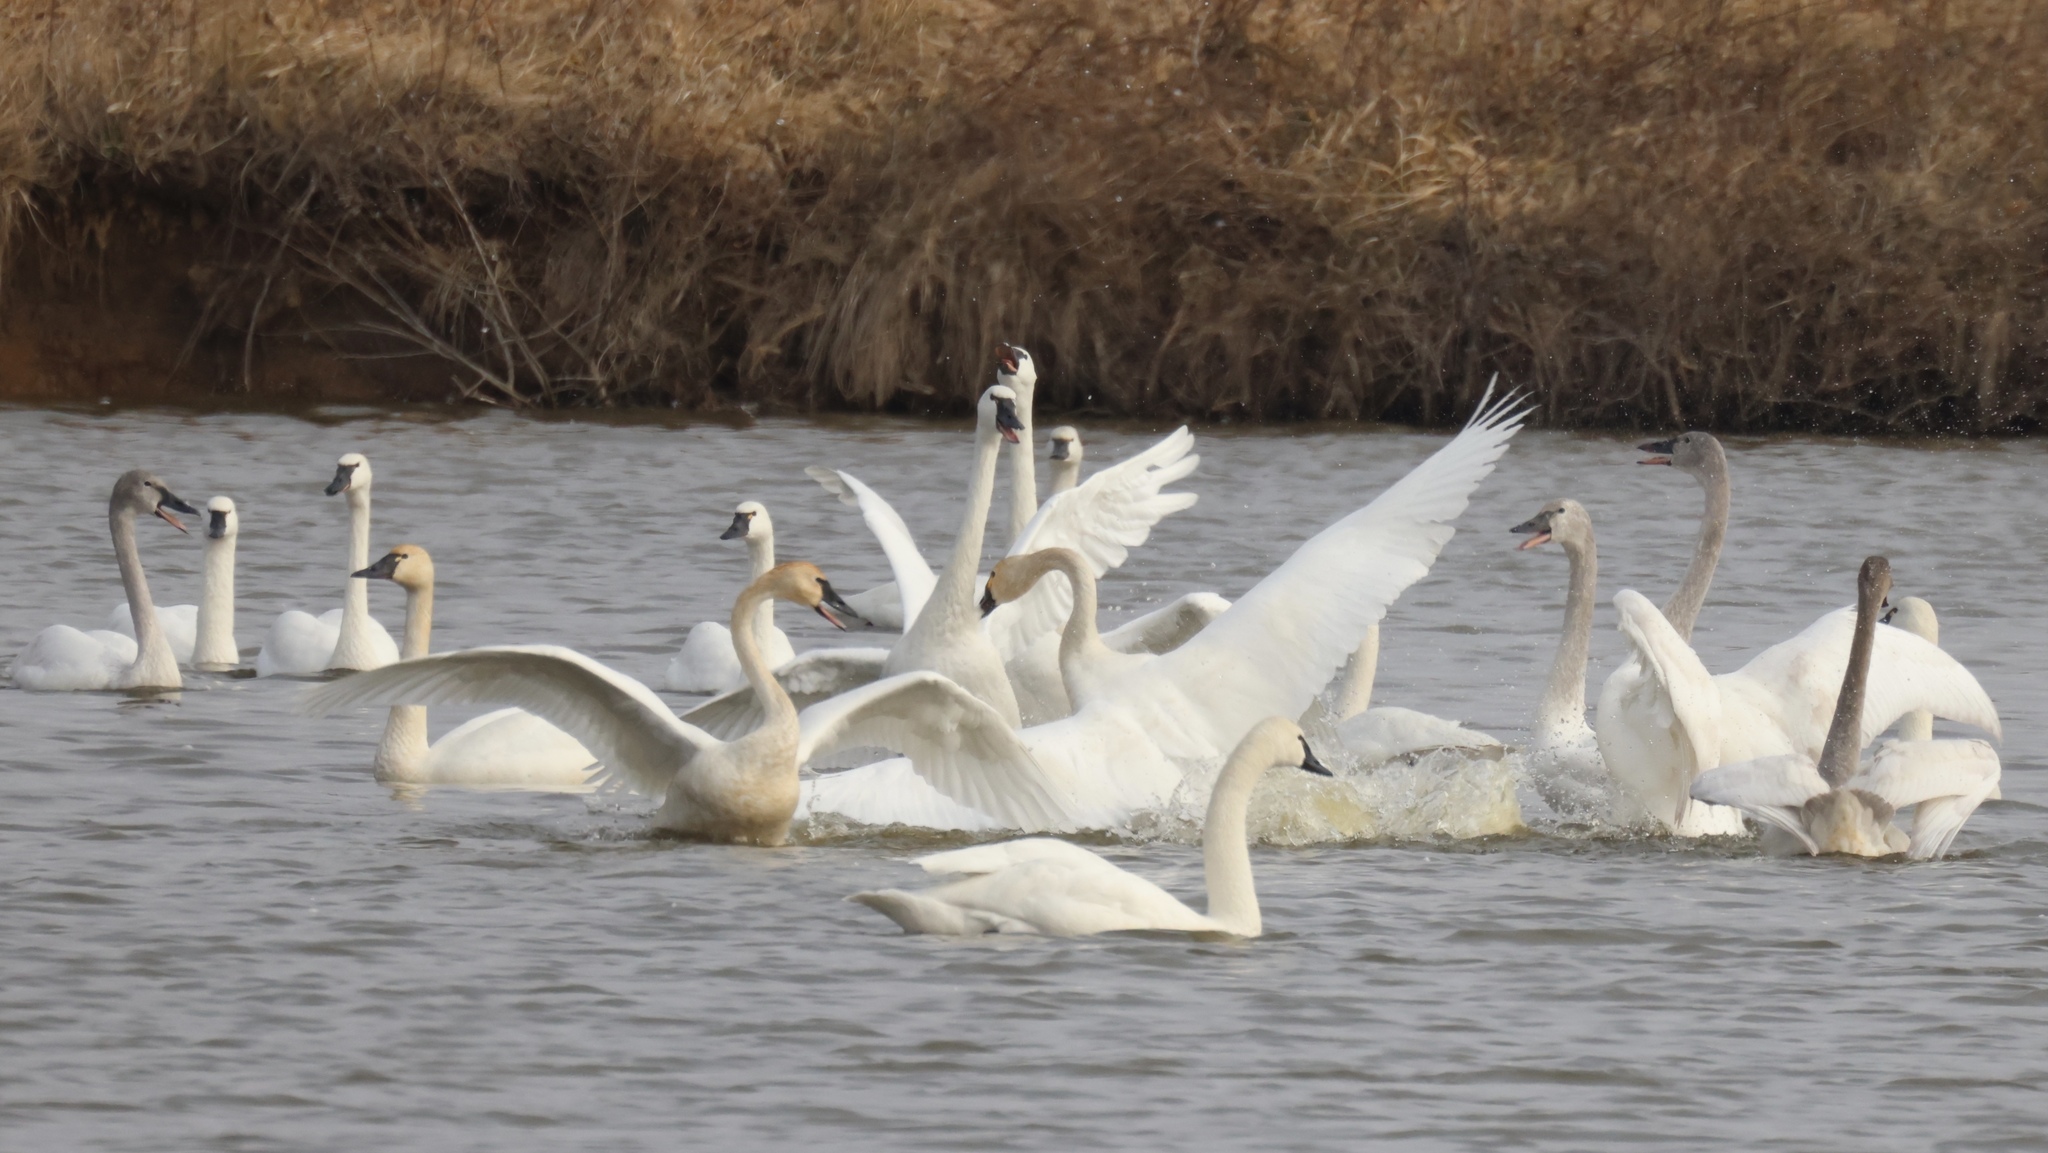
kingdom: Animalia
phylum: Chordata
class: Aves
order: Anseriformes
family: Anatidae
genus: Cygnus
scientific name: Cygnus columbianus
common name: Tundra swan
